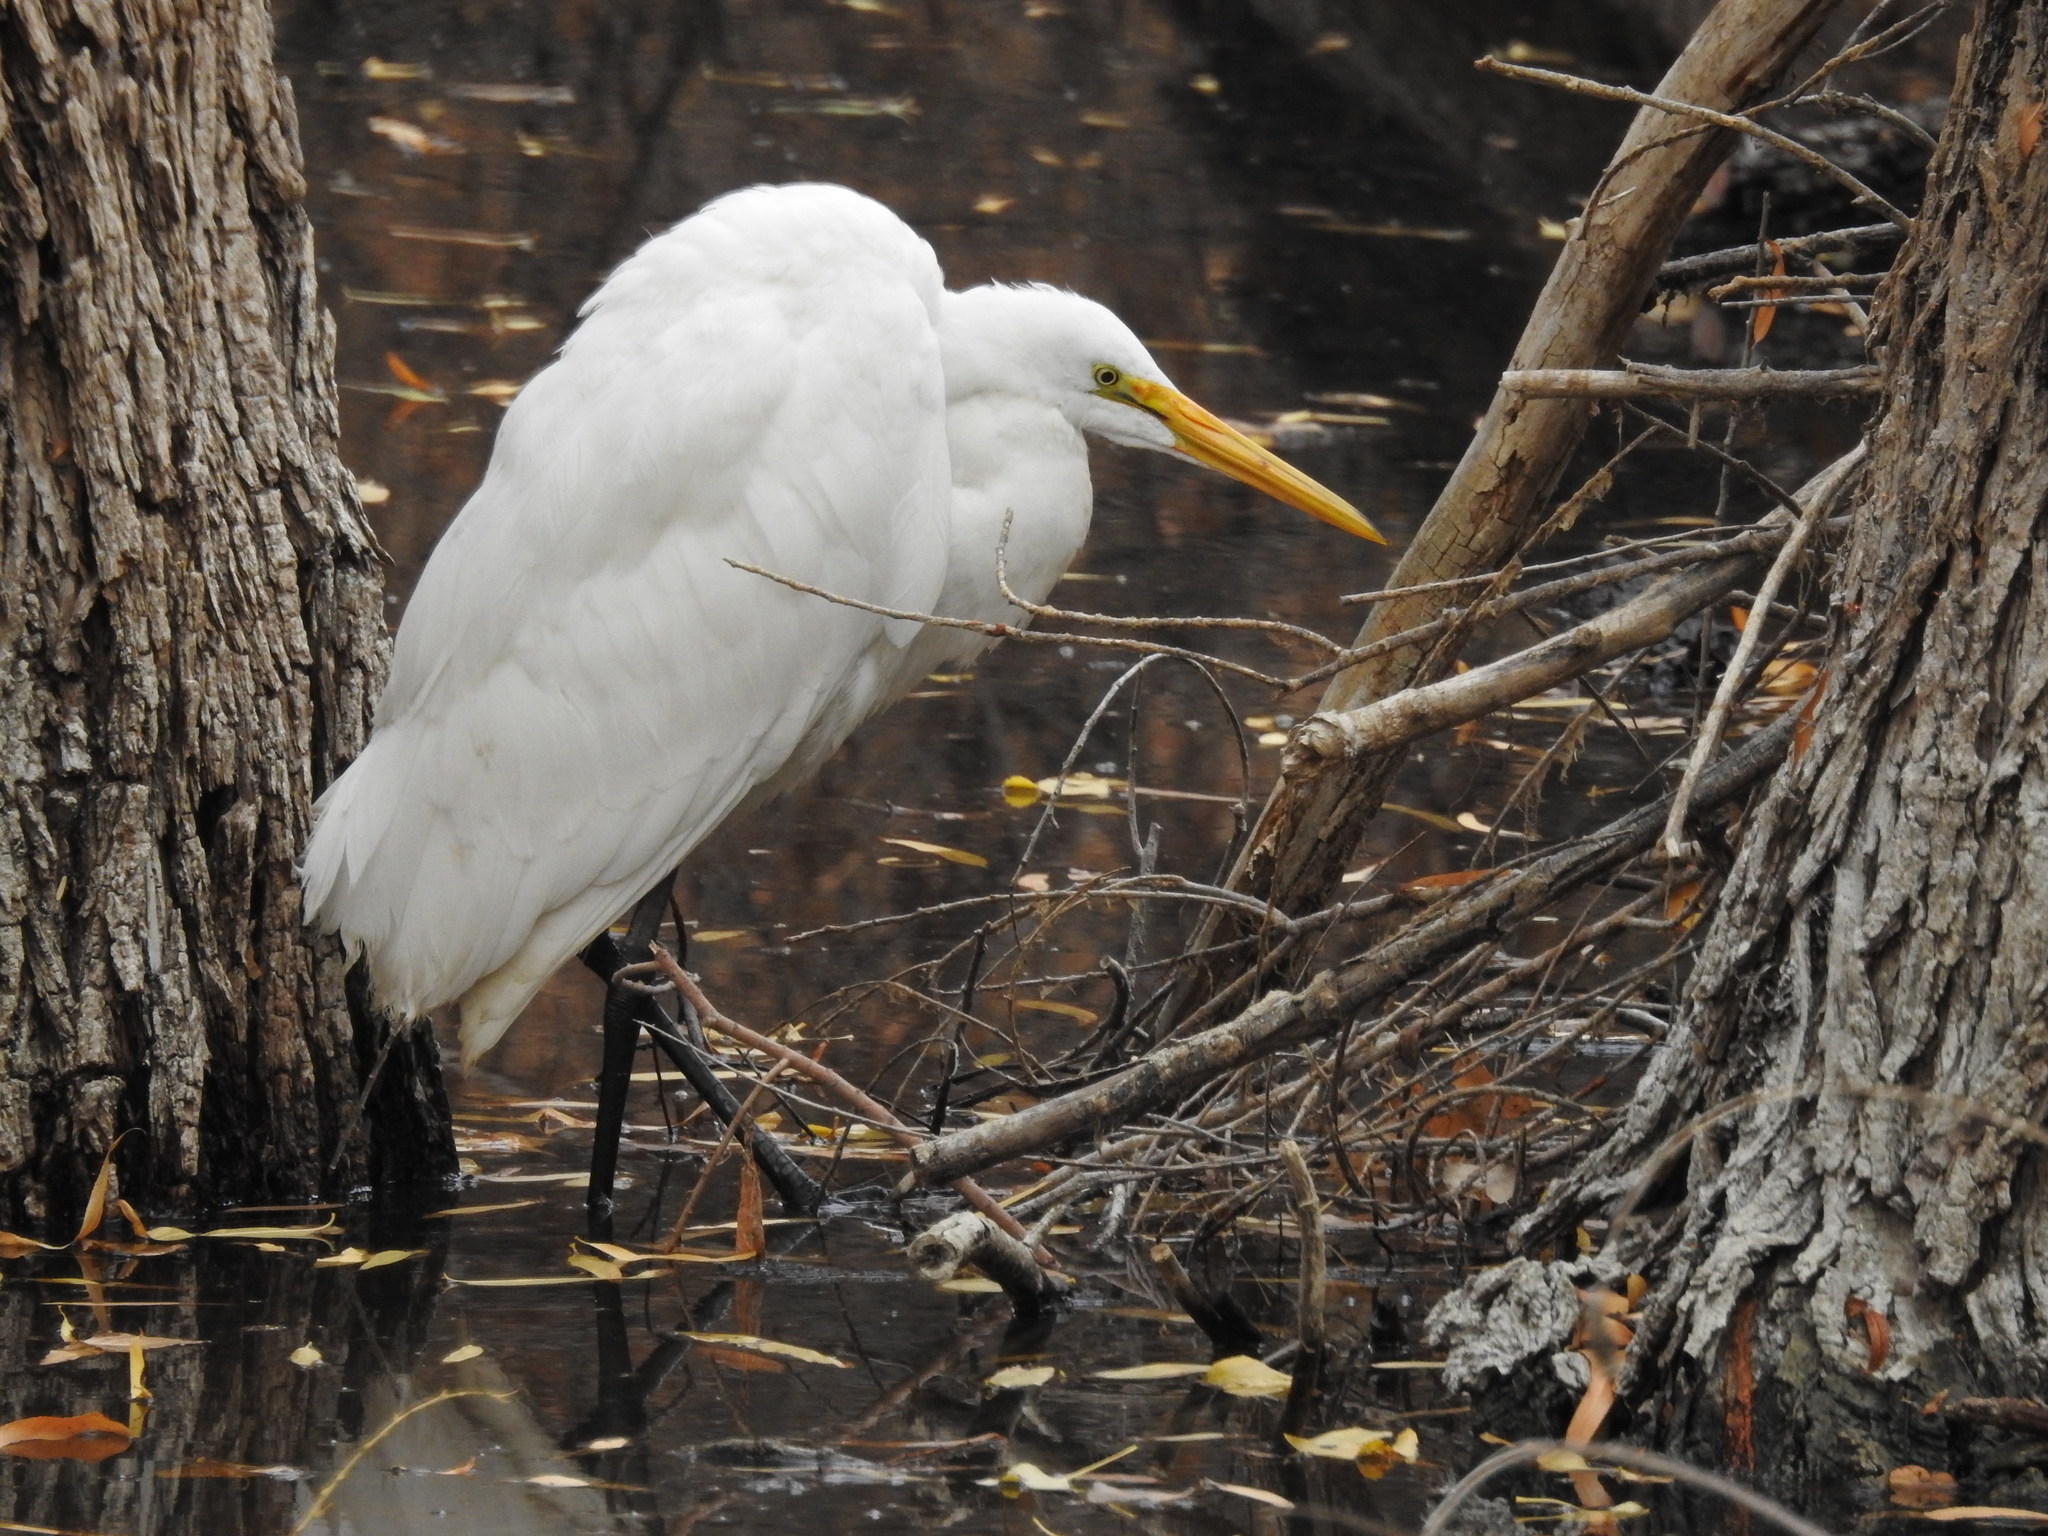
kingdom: Animalia
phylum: Chordata
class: Aves
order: Pelecaniformes
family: Ardeidae
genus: Ardea
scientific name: Ardea alba
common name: Great egret
